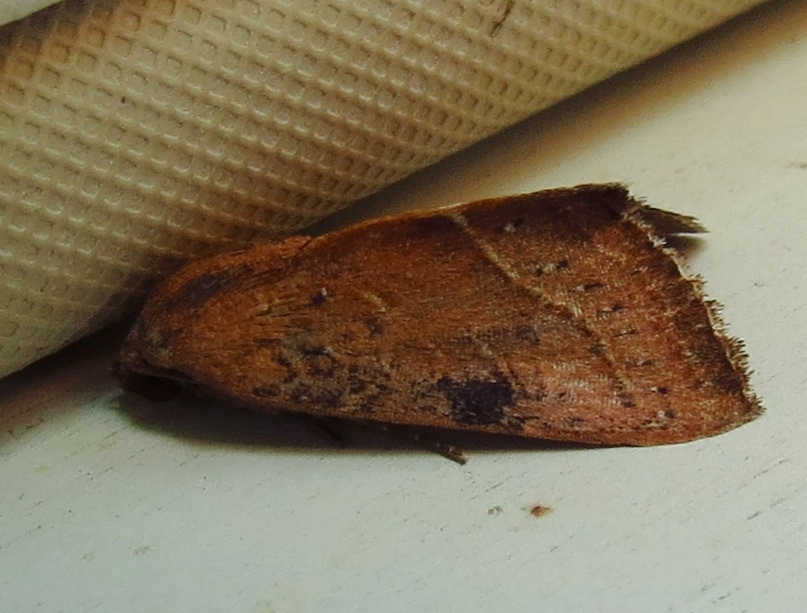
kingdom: Animalia
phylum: Arthropoda
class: Insecta
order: Lepidoptera
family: Noctuidae
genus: Galgula
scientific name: Galgula partita
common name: Wedgeling
